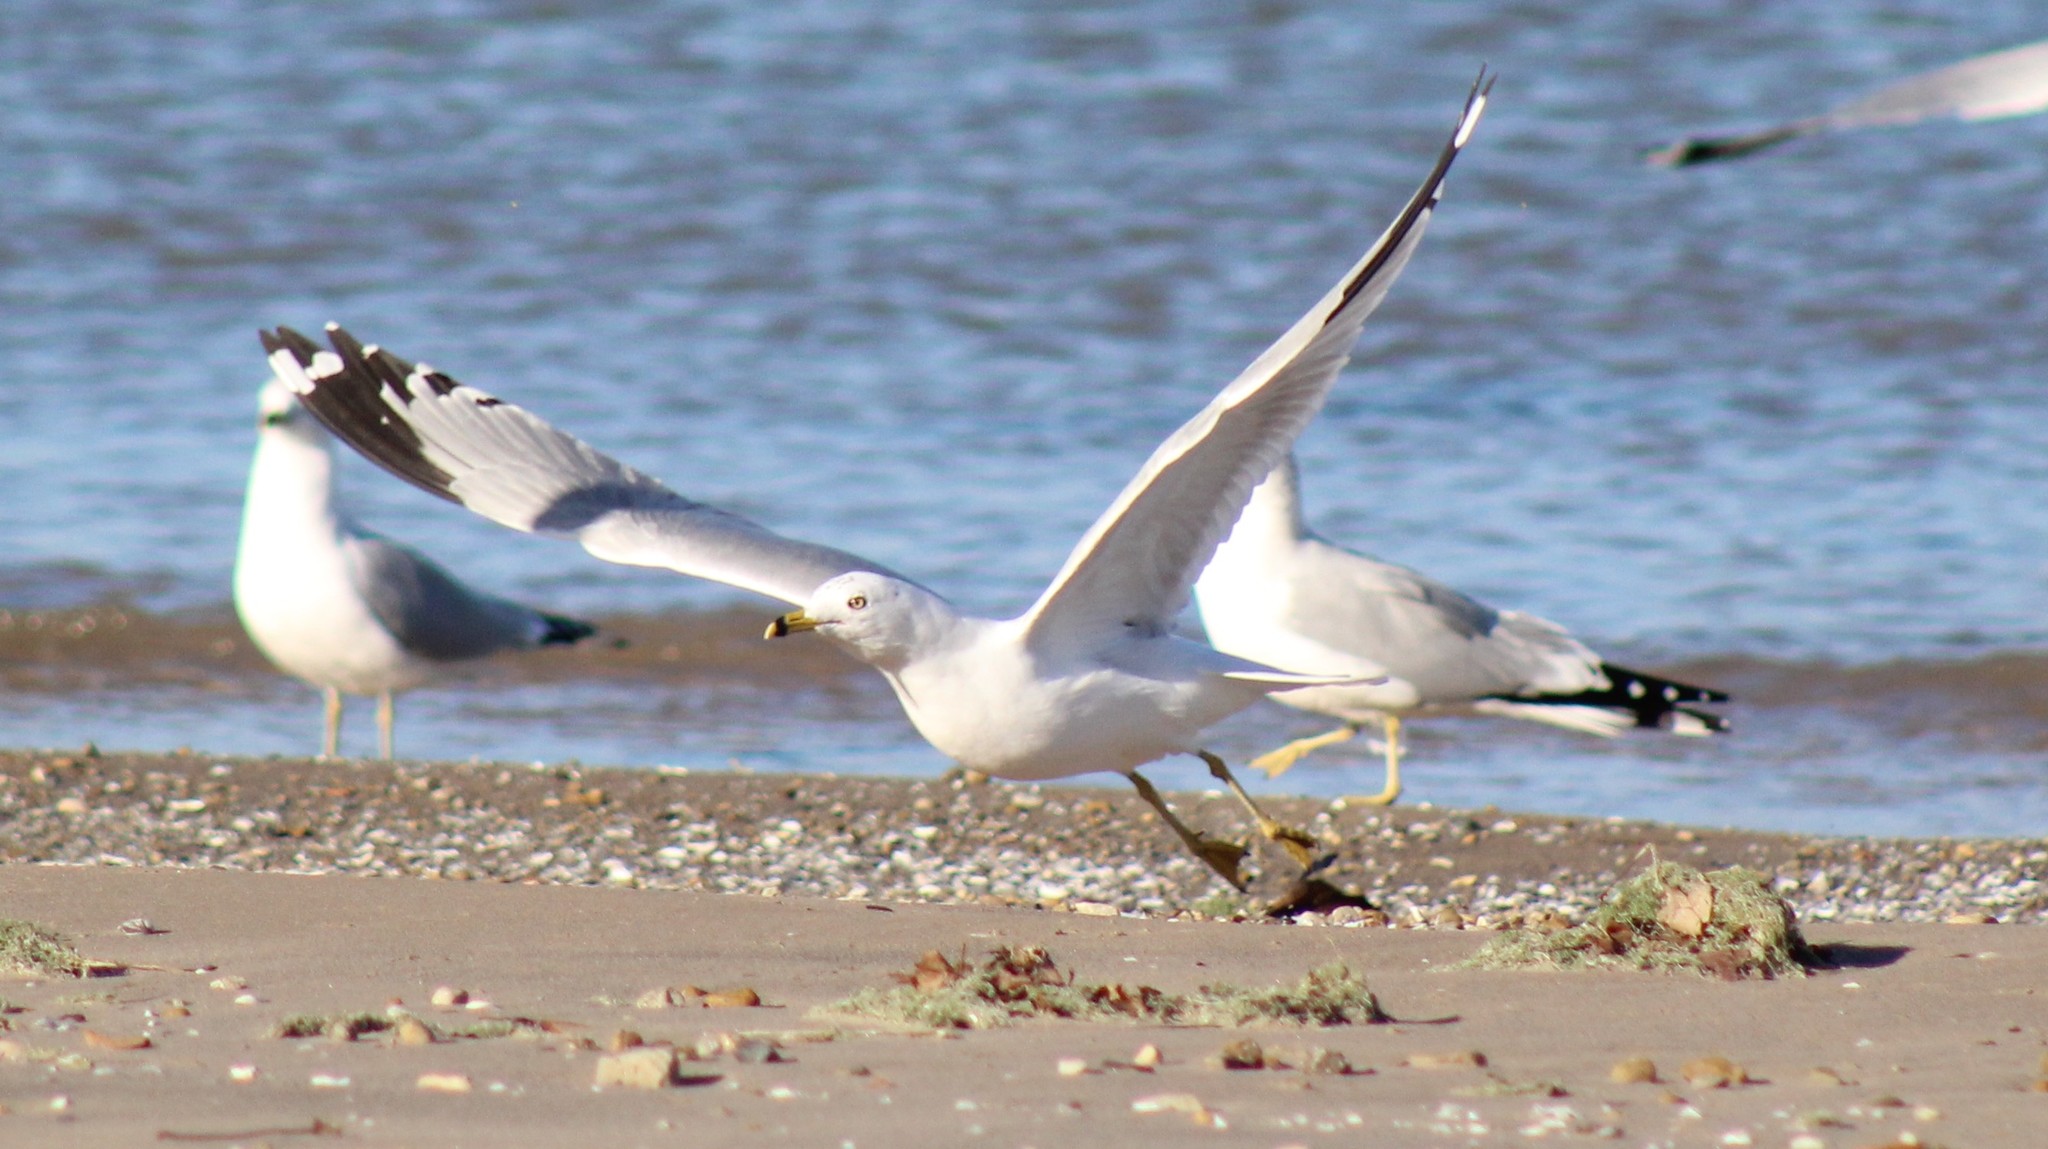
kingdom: Animalia
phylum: Chordata
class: Aves
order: Charadriiformes
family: Laridae
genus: Larus
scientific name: Larus delawarensis
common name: Ring-billed gull
